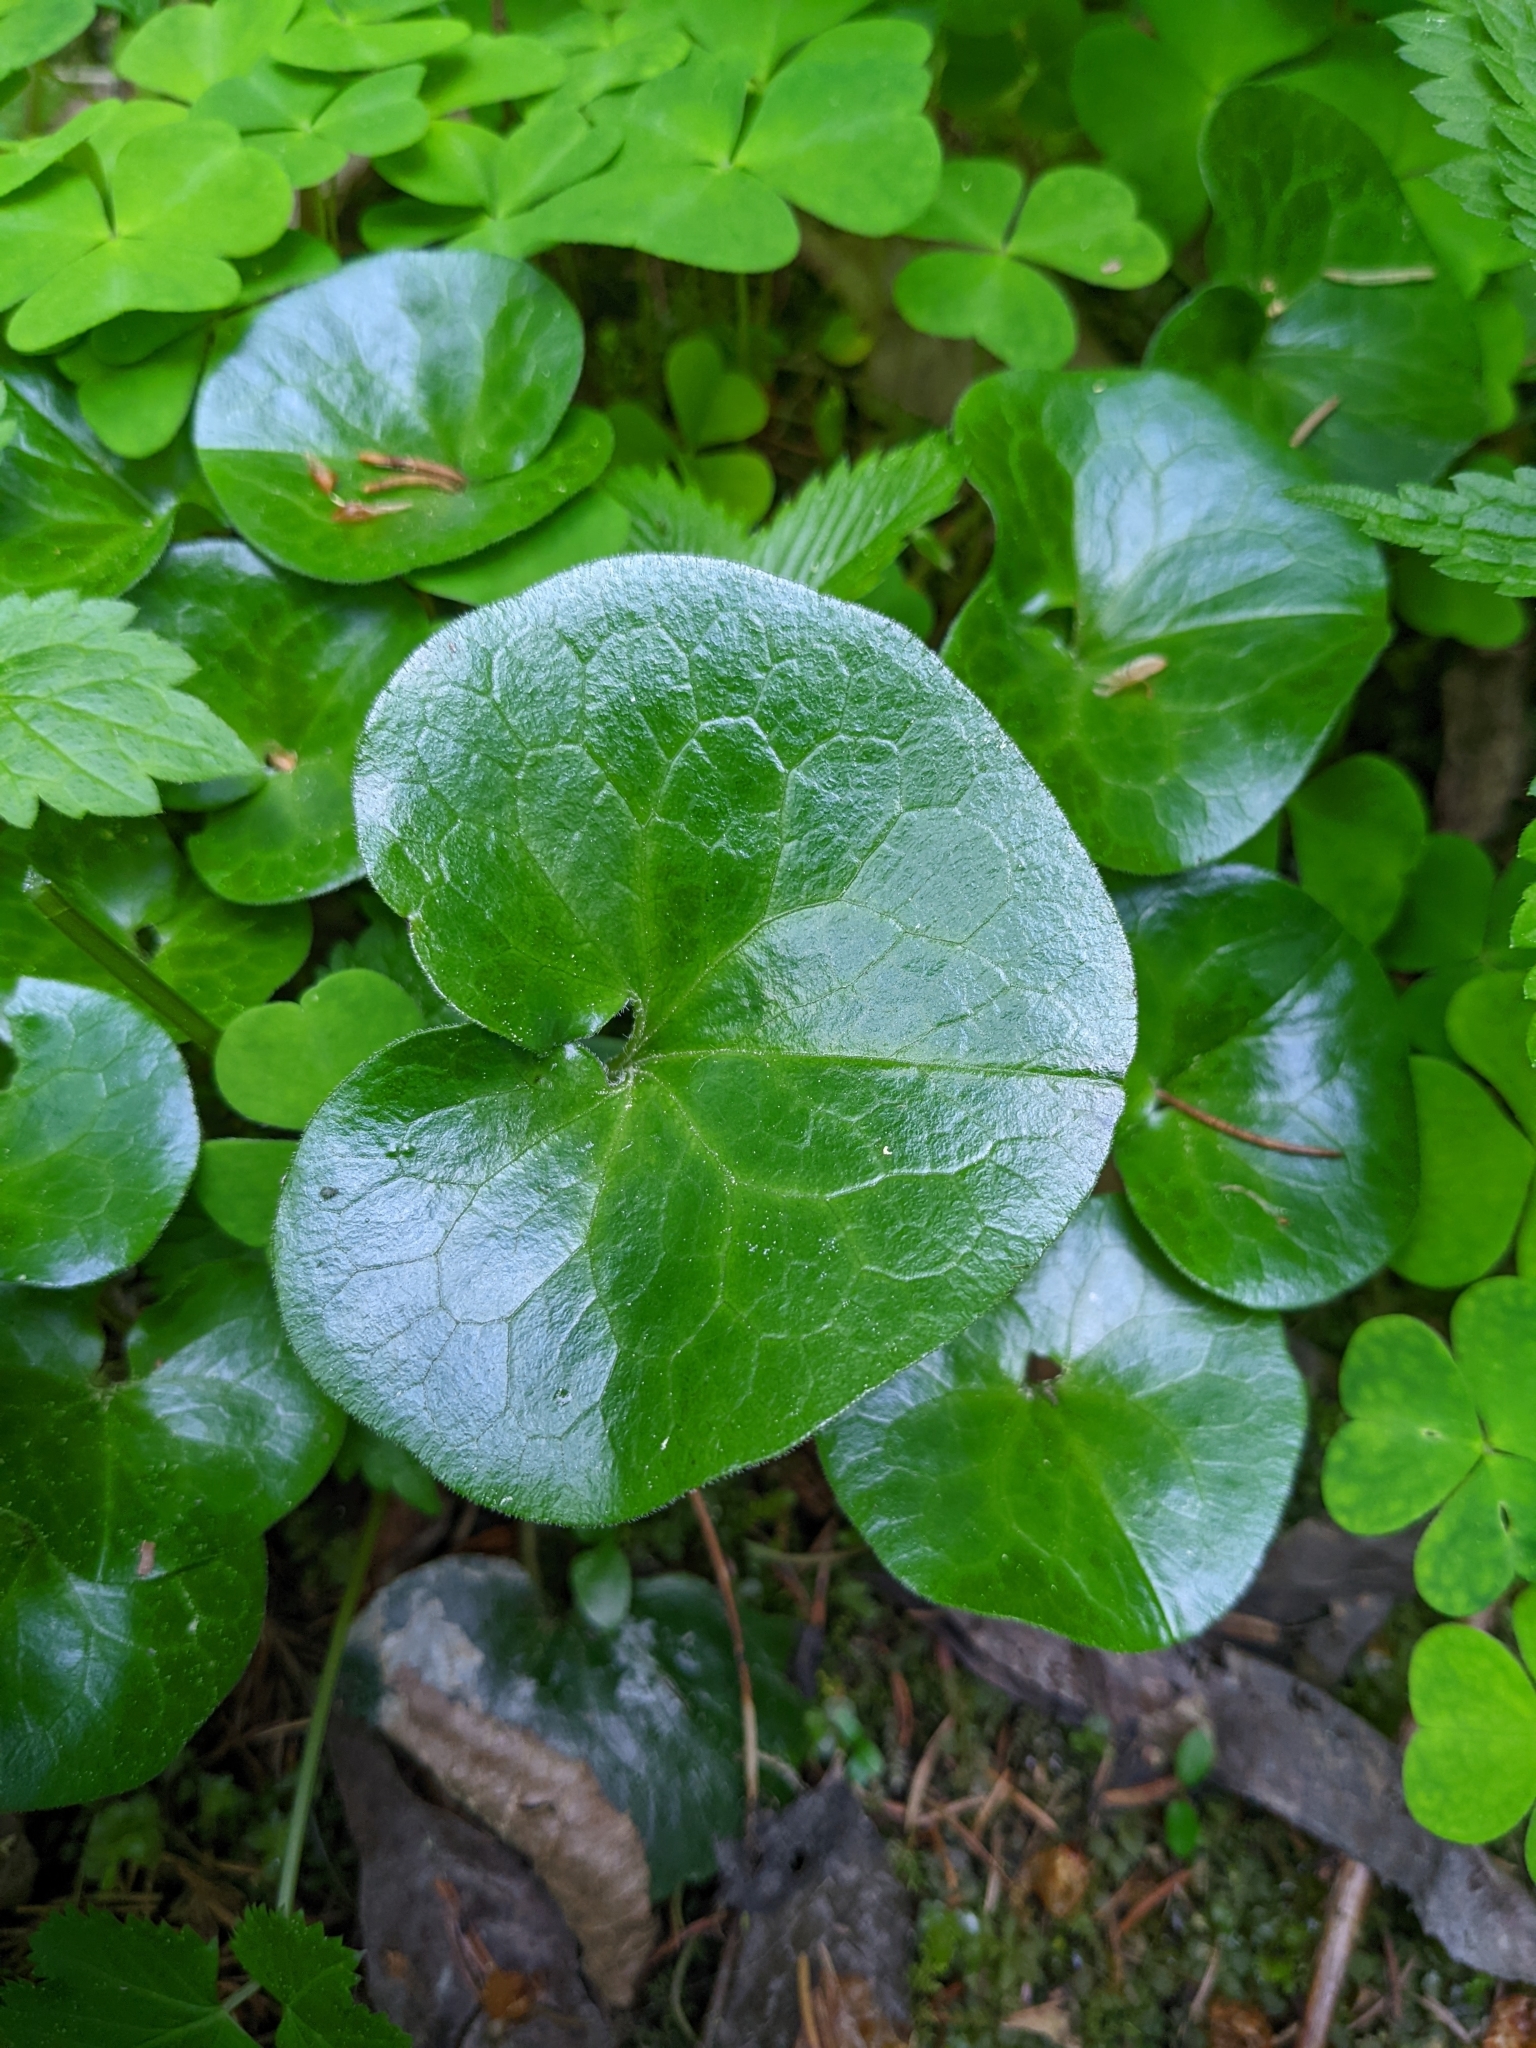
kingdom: Plantae
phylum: Tracheophyta
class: Magnoliopsida
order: Piperales
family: Aristolochiaceae
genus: Asarum
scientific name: Asarum europaeum
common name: Asarabacca
